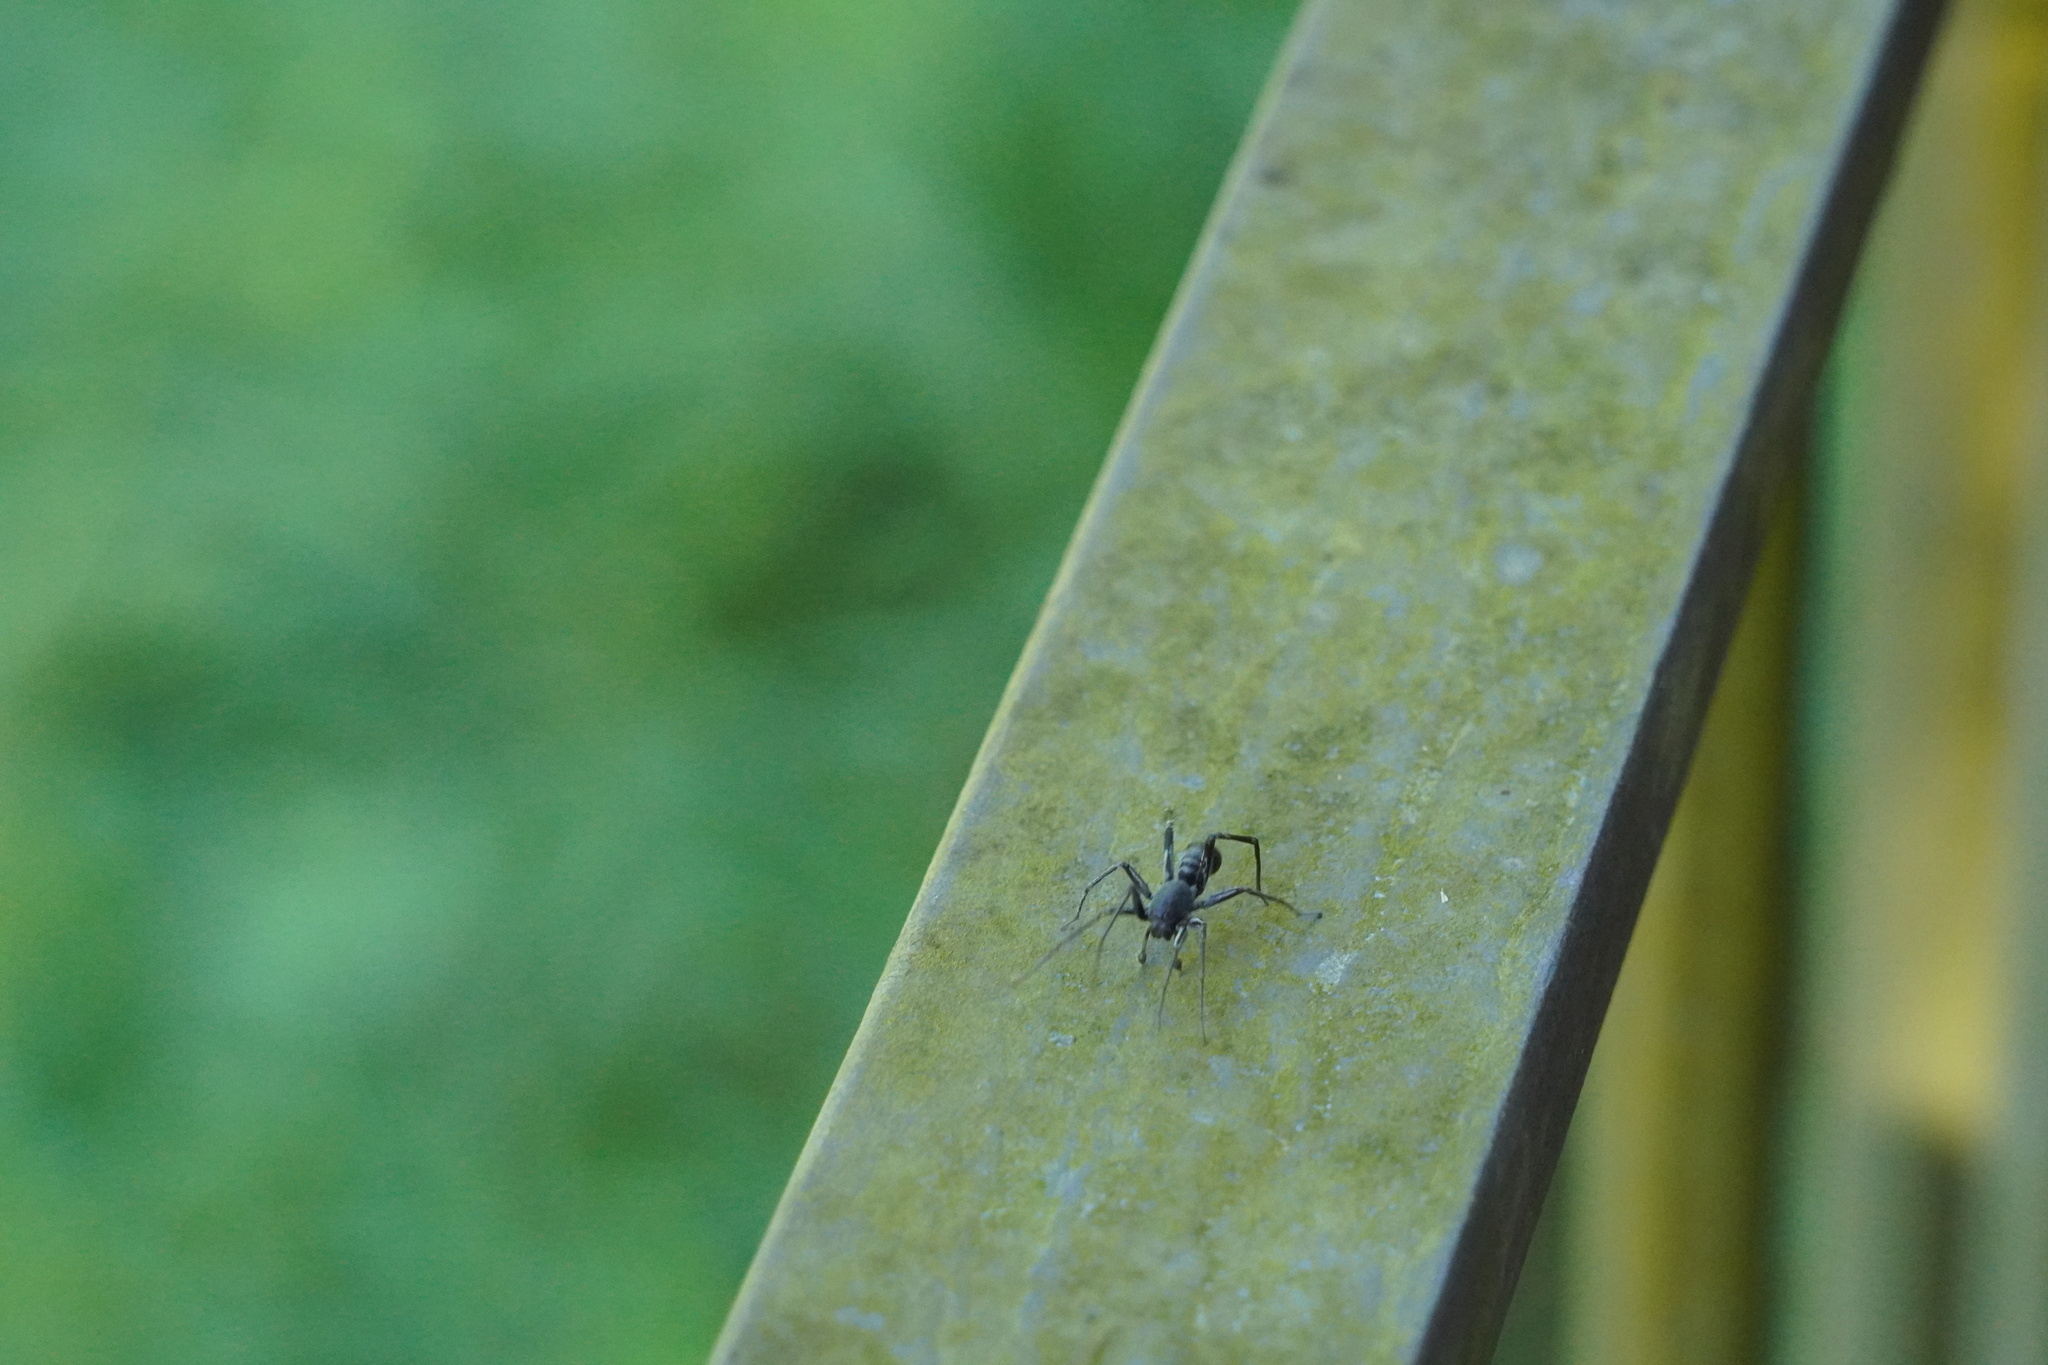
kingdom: Animalia
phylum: Arthropoda
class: Arachnida
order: Araneae
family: Corinnidae
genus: Corinnomma
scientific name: Corinnomma severum
